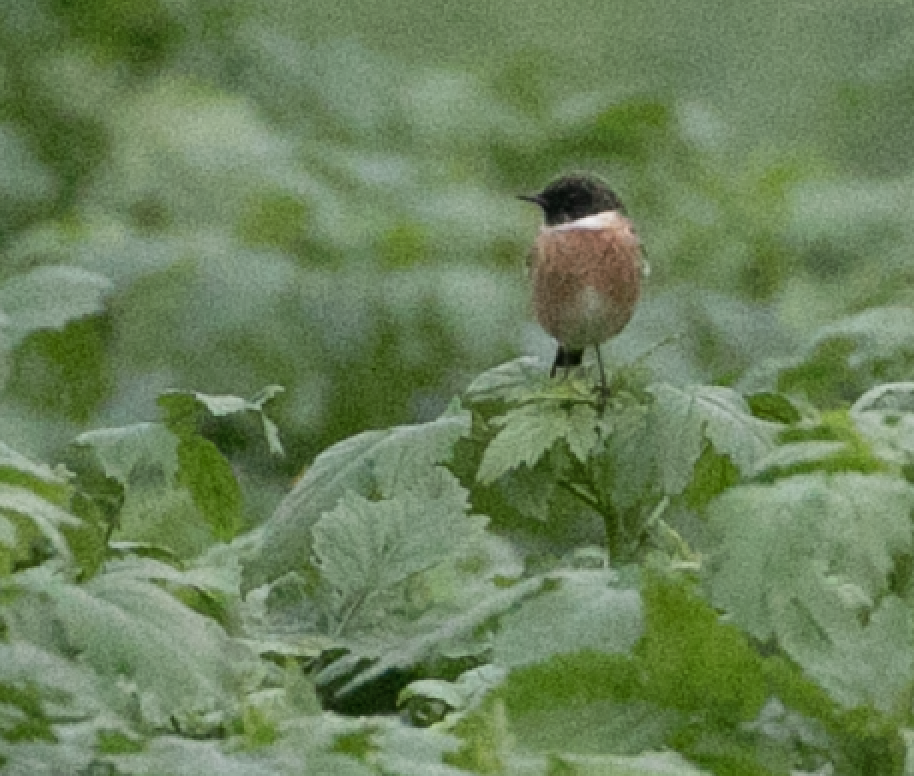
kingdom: Animalia
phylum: Chordata
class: Aves
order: Passeriformes
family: Muscicapidae
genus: Saxicola
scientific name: Saxicola rubicola
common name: European stonechat
